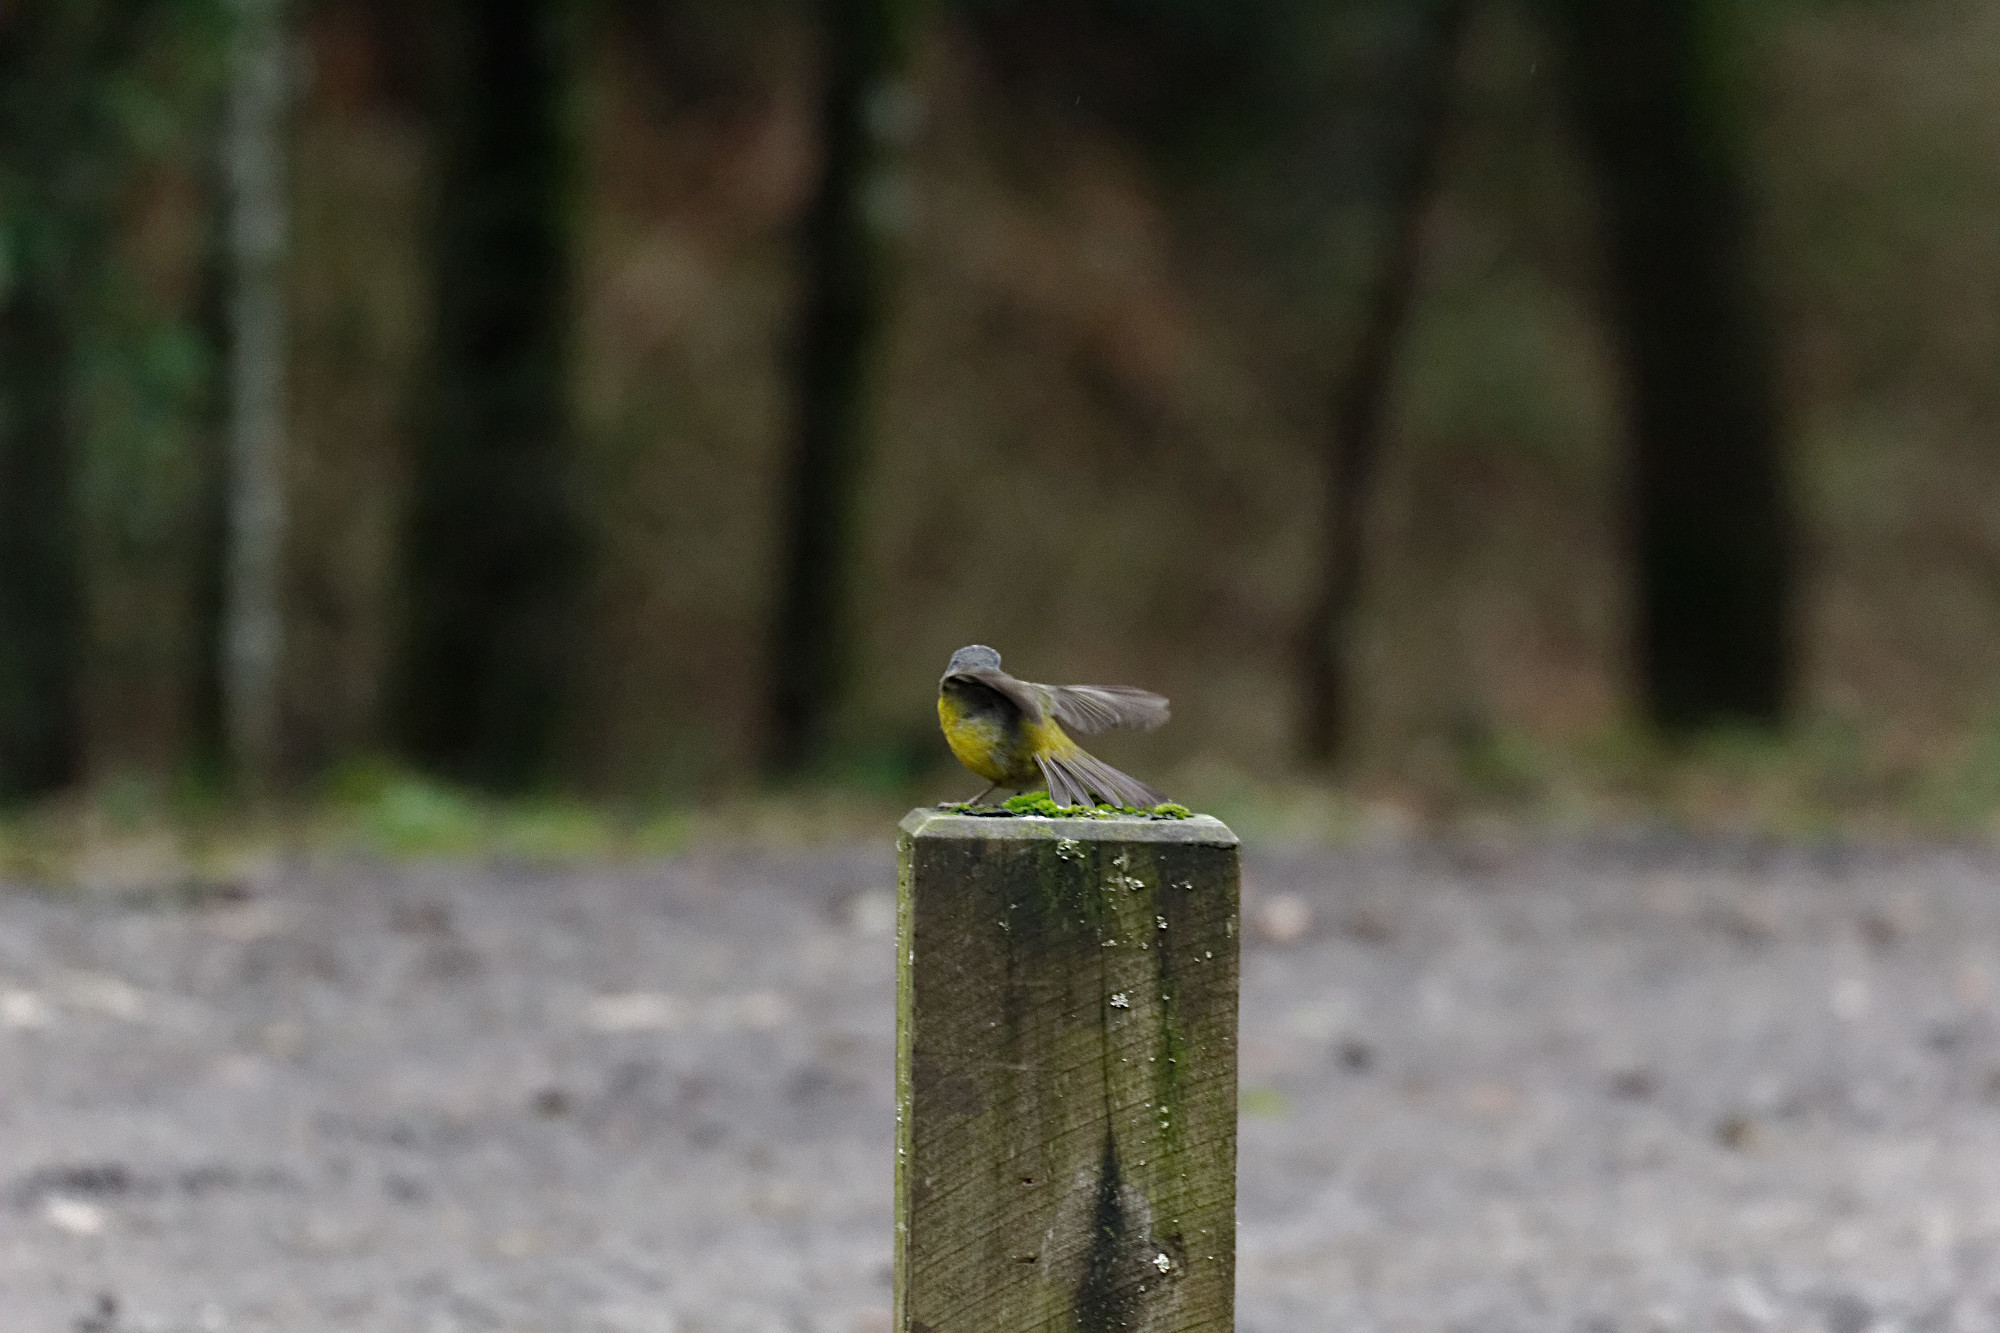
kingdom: Animalia
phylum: Chordata
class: Aves
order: Passeriformes
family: Petroicidae
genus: Eopsaltria
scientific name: Eopsaltria australis
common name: Eastern yellow robin
